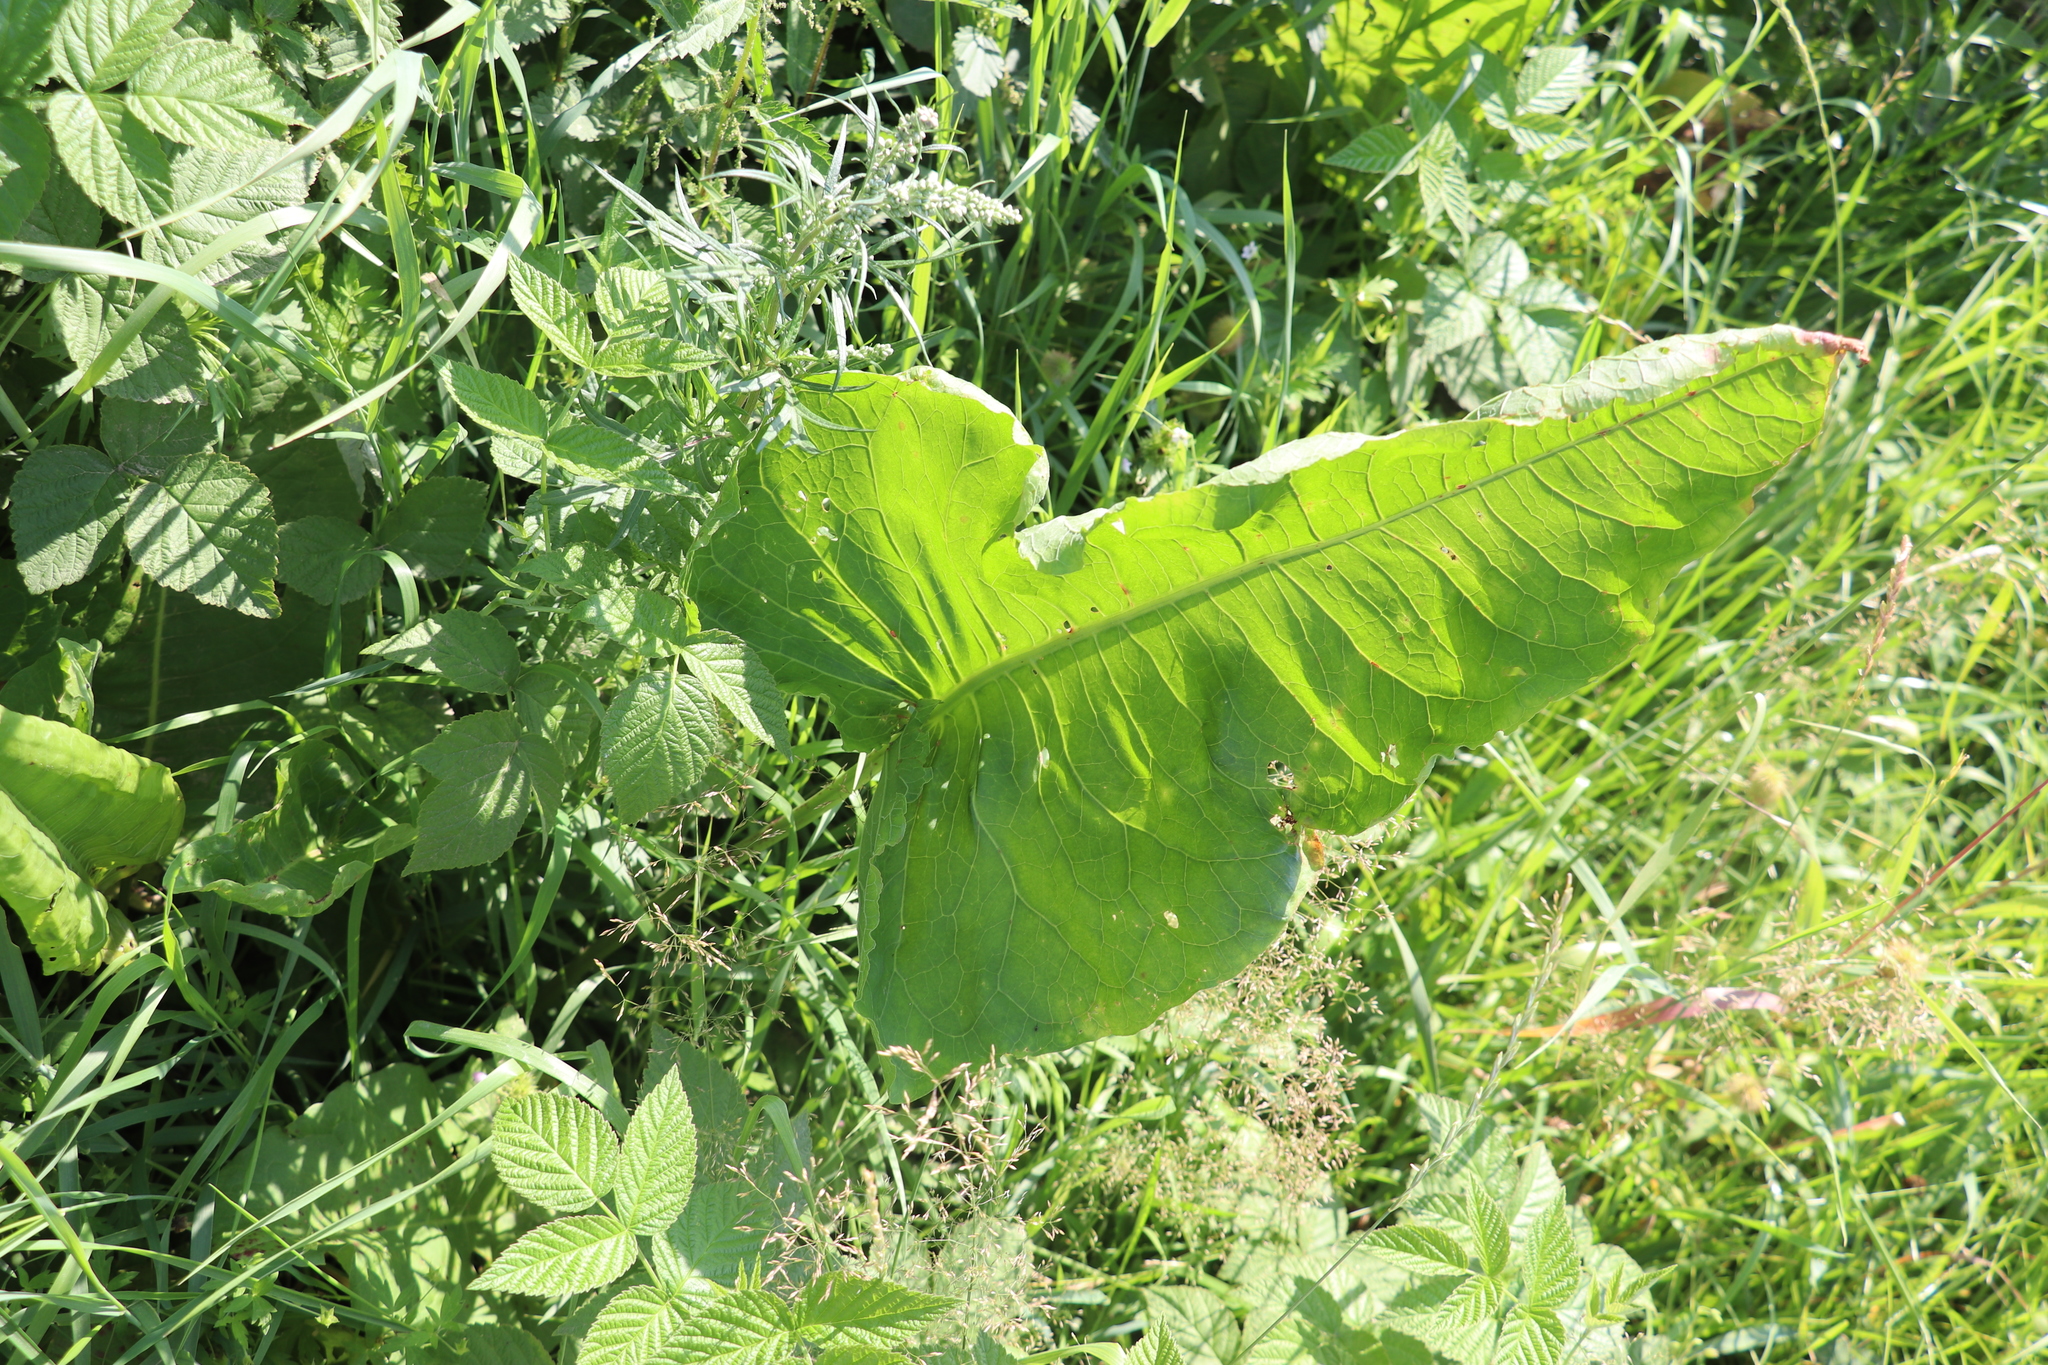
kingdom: Plantae
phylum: Tracheophyta
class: Magnoliopsida
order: Caryophyllales
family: Polygonaceae
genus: Rumex
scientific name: Rumex aquaticus
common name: Scottish dock
